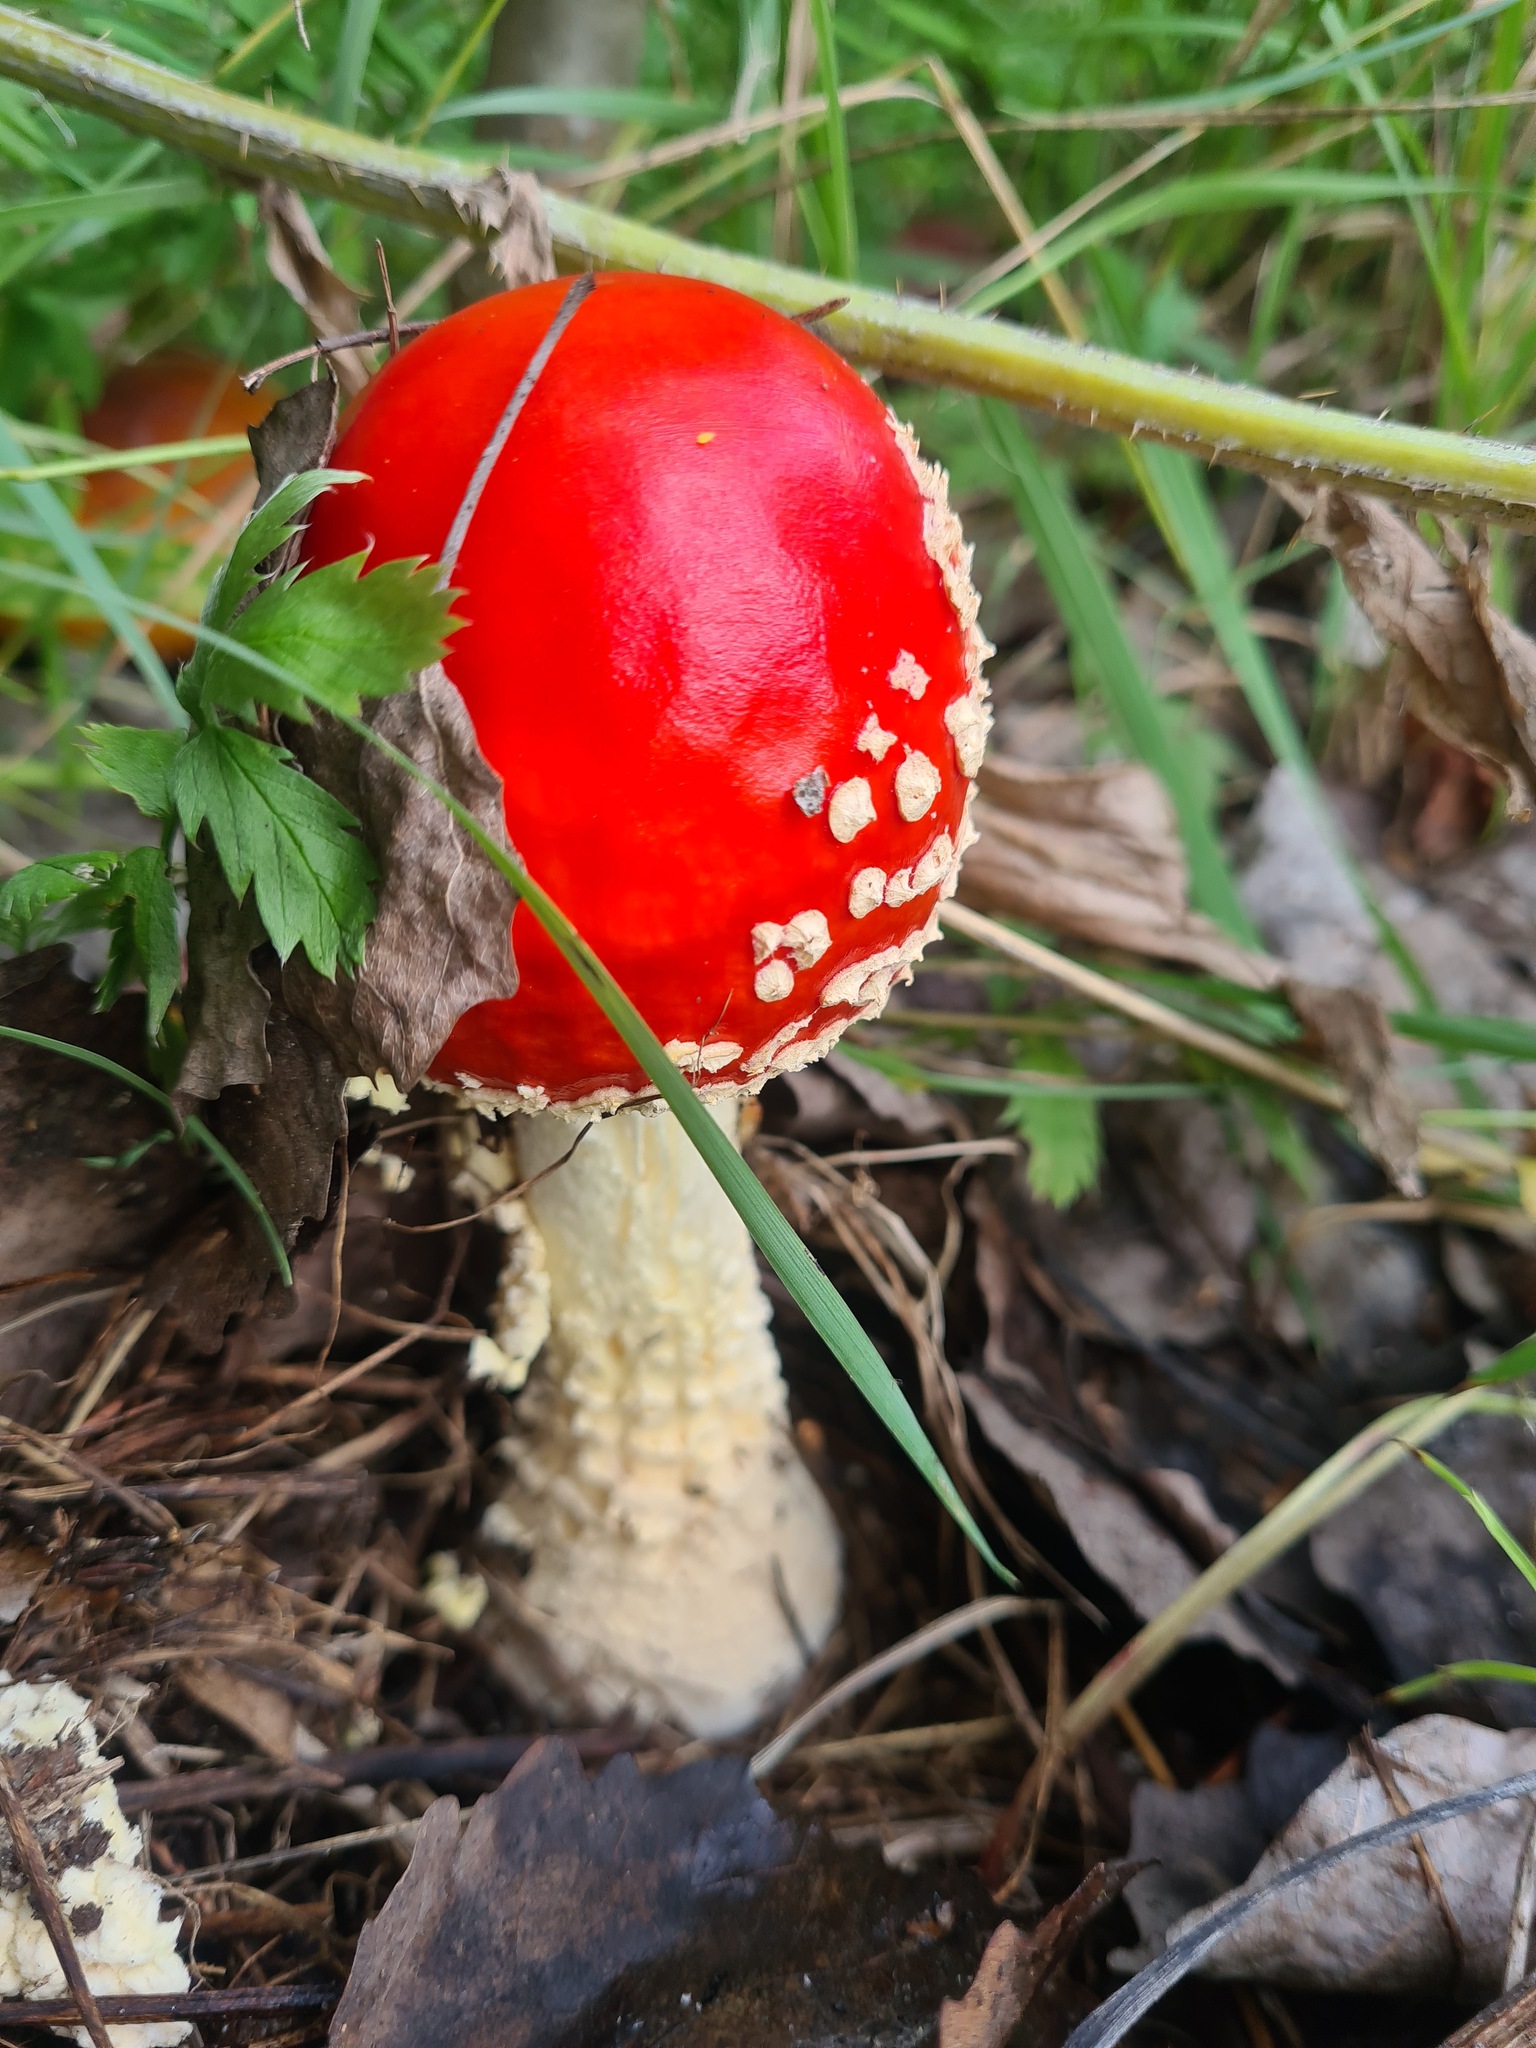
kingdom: Fungi
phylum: Basidiomycota
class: Agaricomycetes
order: Agaricales
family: Amanitaceae
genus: Amanita
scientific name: Amanita muscaria
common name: Fly agaric
